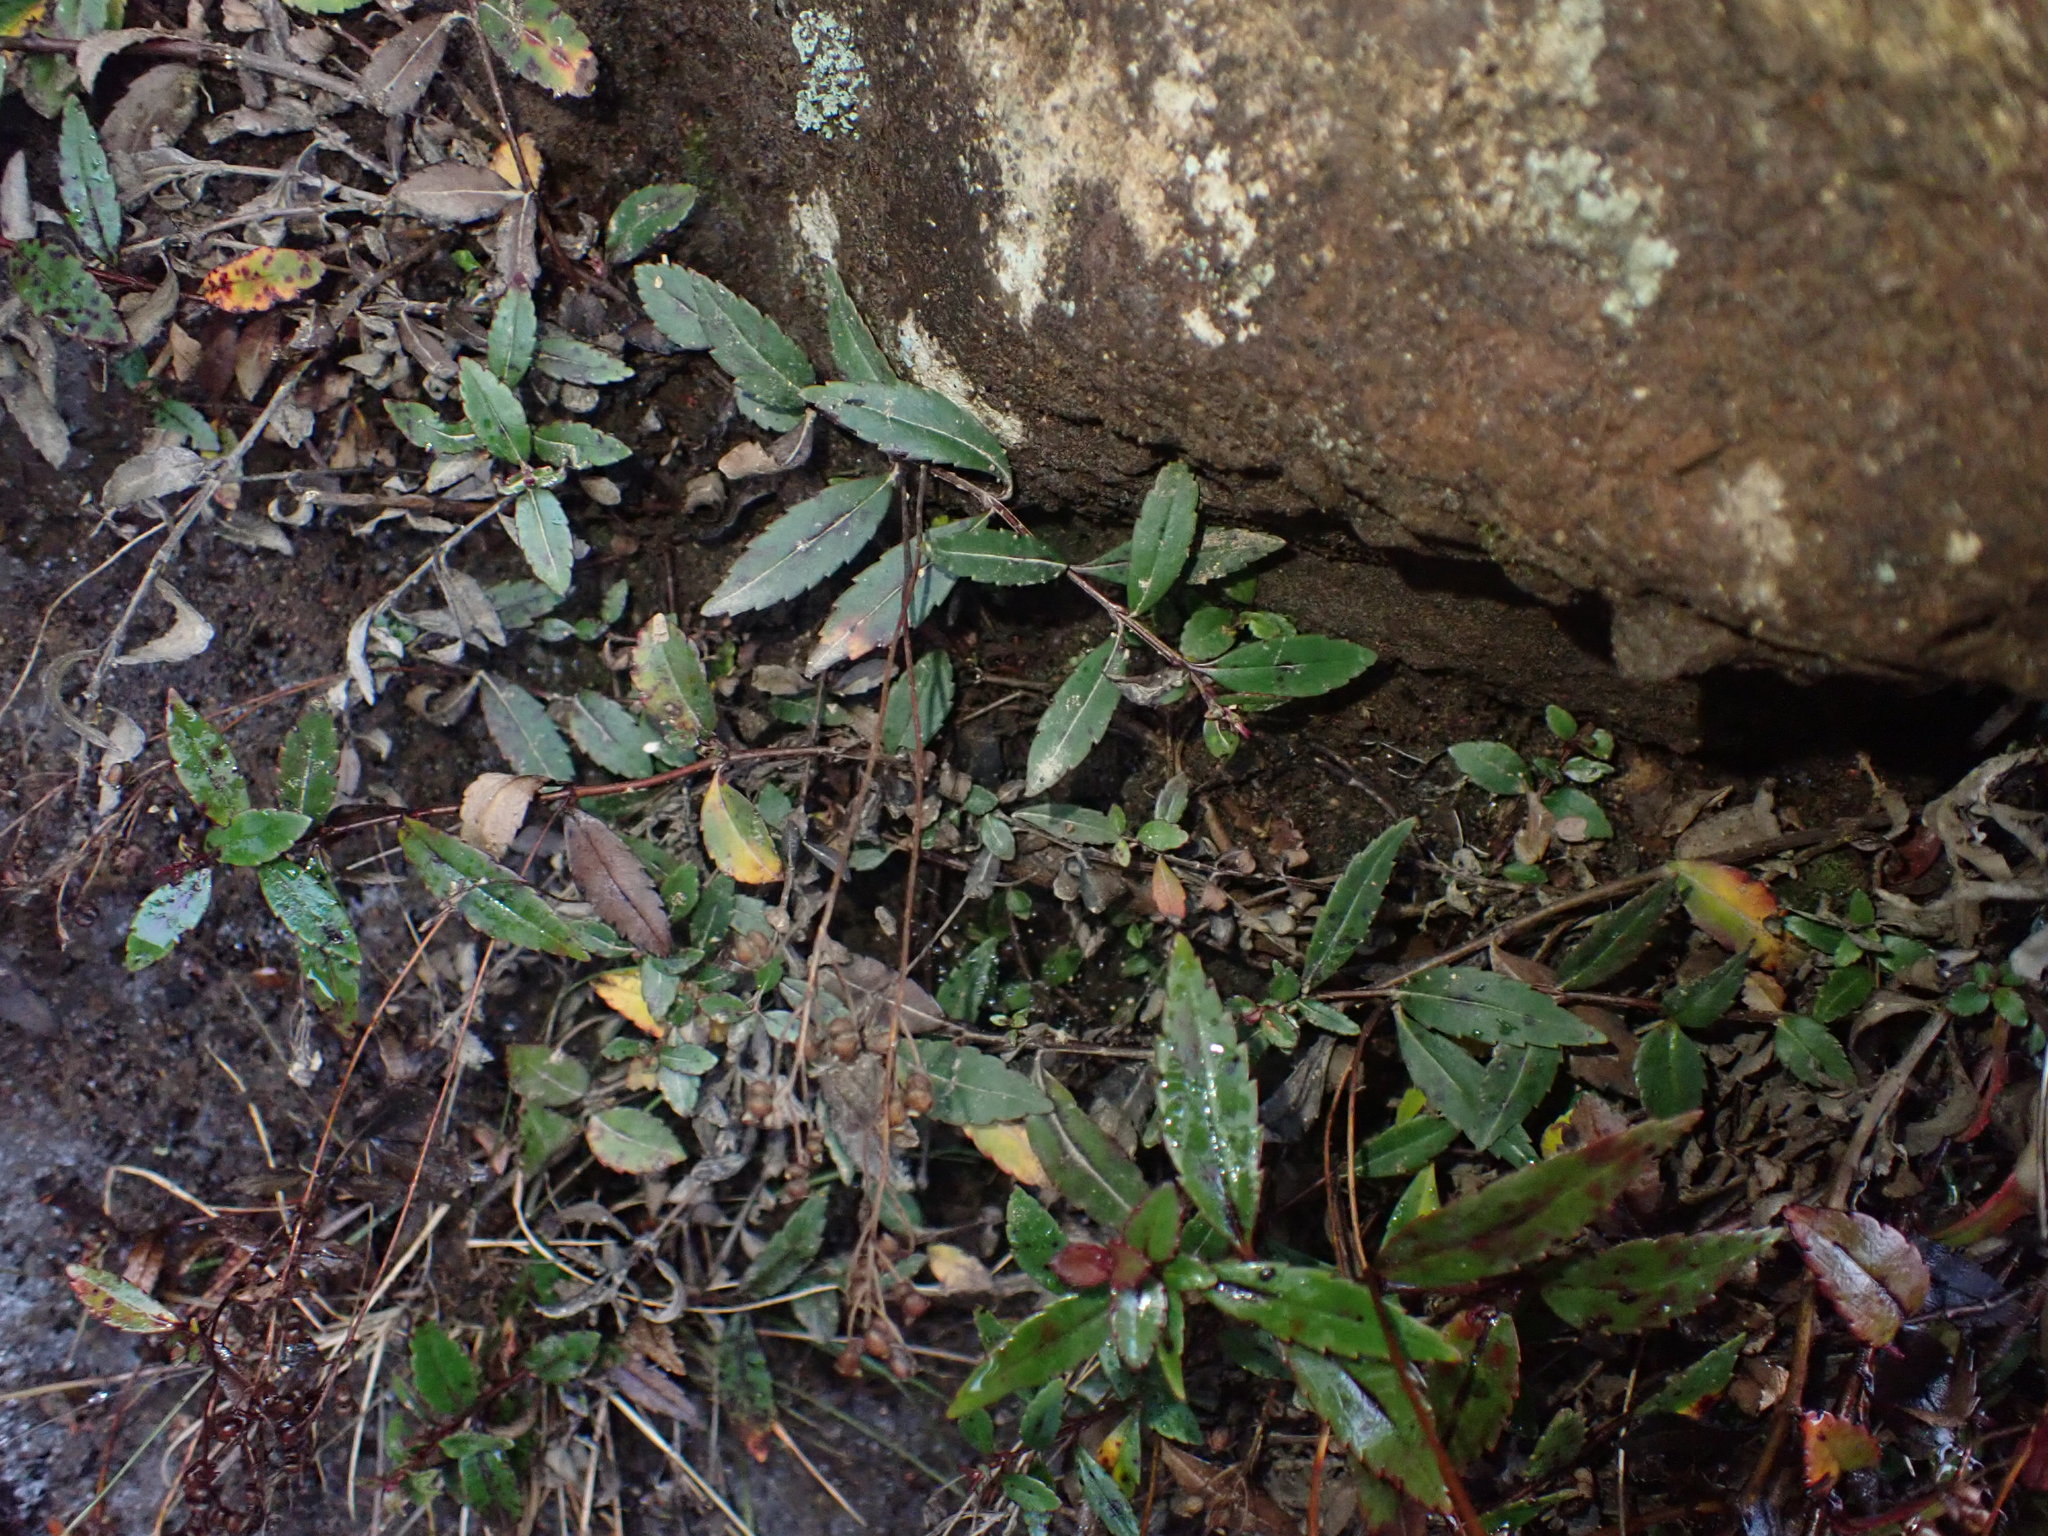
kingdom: Plantae
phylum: Tracheophyta
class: Magnoliopsida
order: Lamiales
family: Plantaginaceae
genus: Veronica
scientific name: Veronica lanceolata
